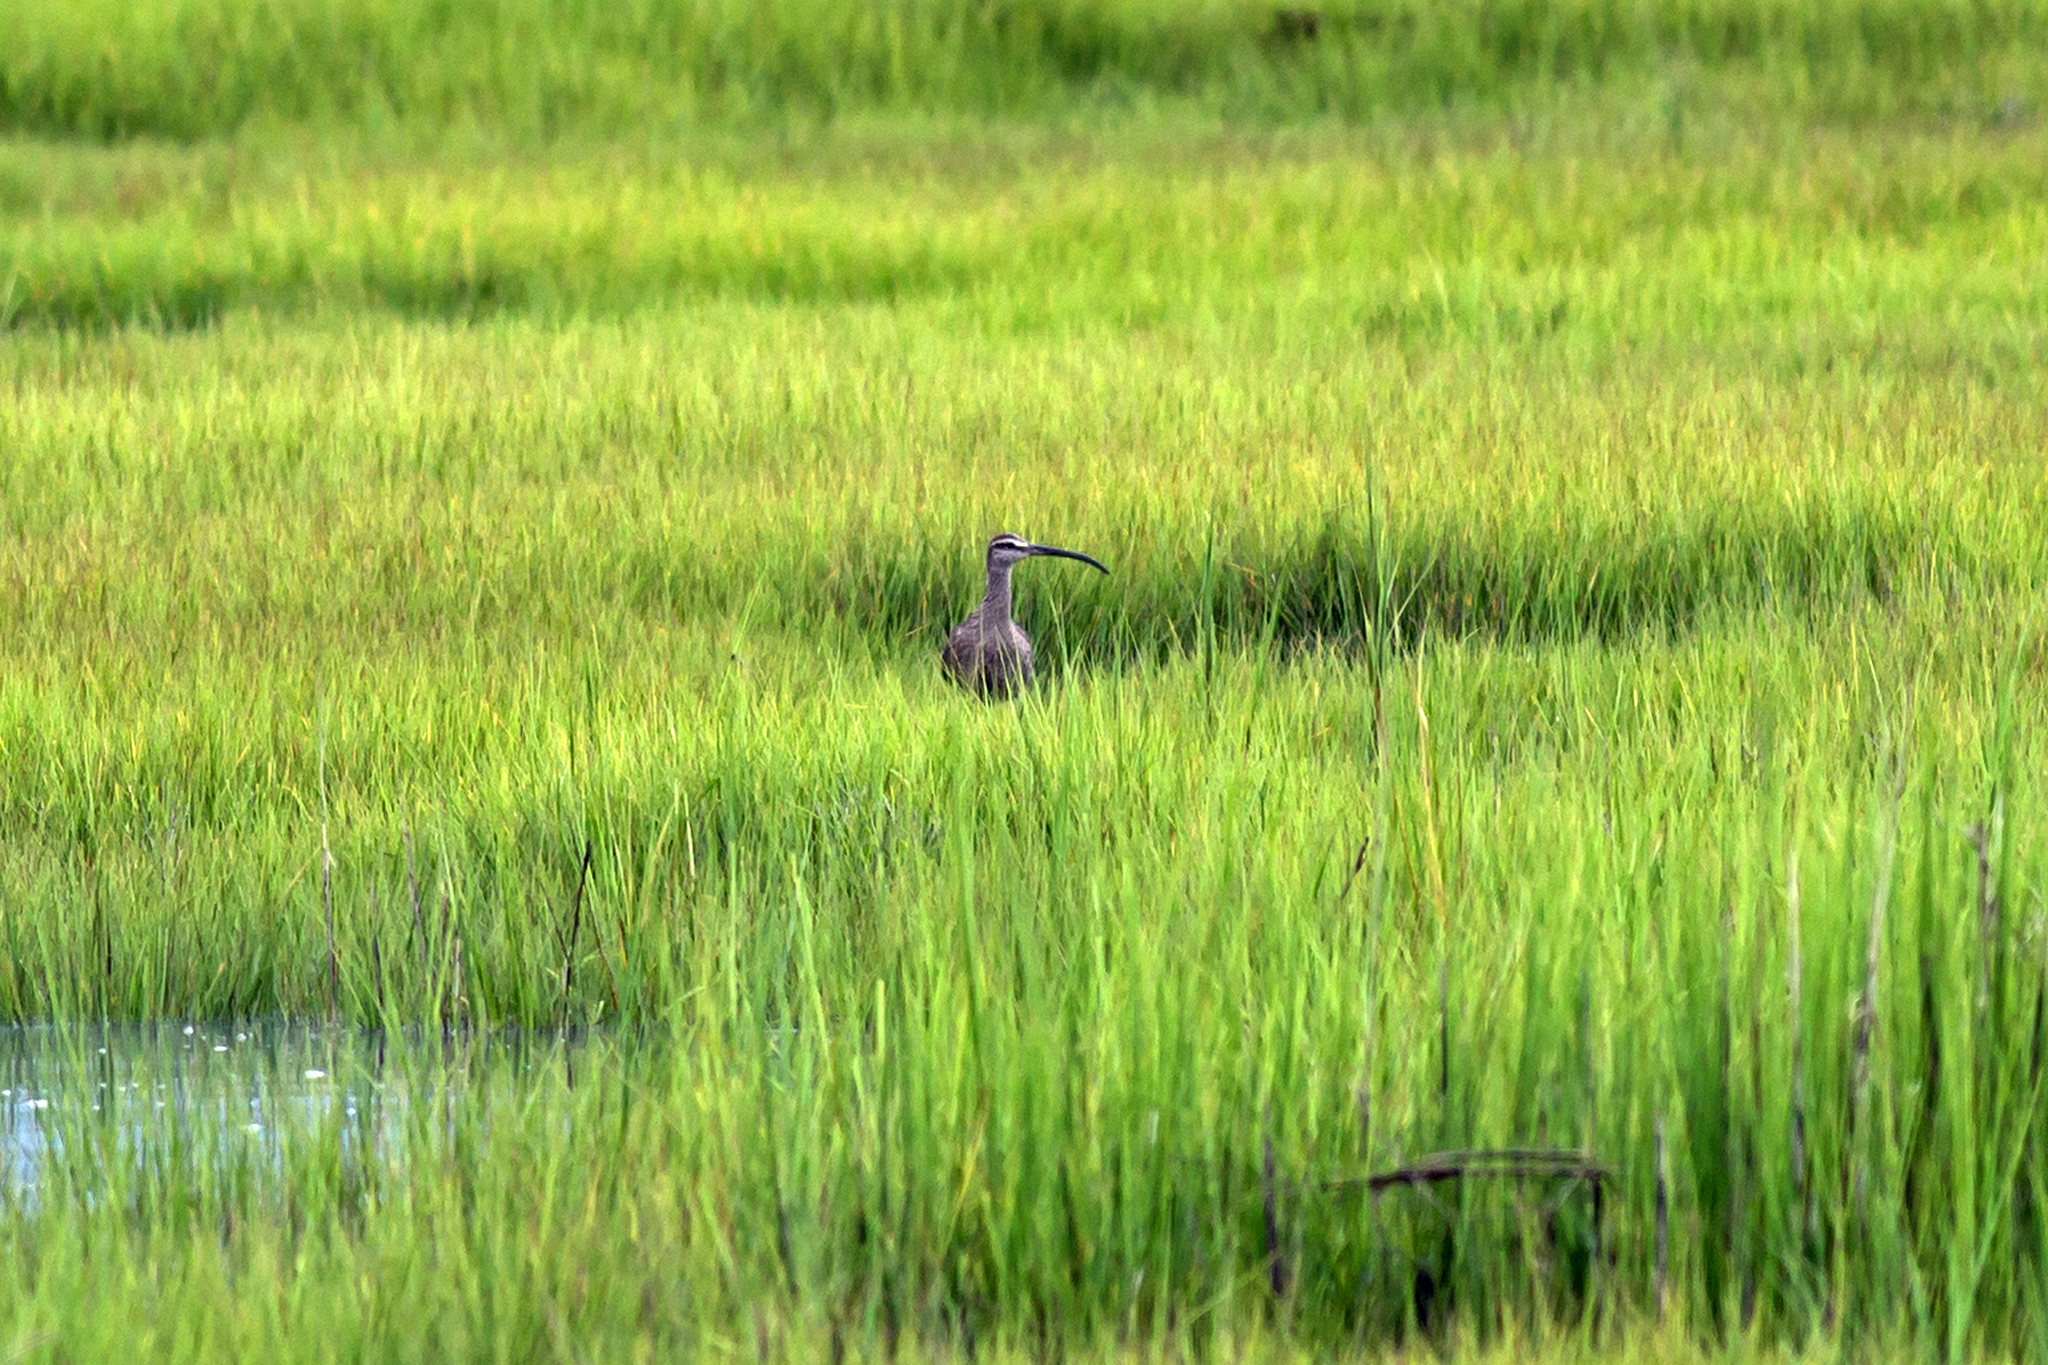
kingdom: Animalia
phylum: Chordata
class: Aves
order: Charadriiformes
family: Scolopacidae
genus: Numenius
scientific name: Numenius phaeopus
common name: Whimbrel
